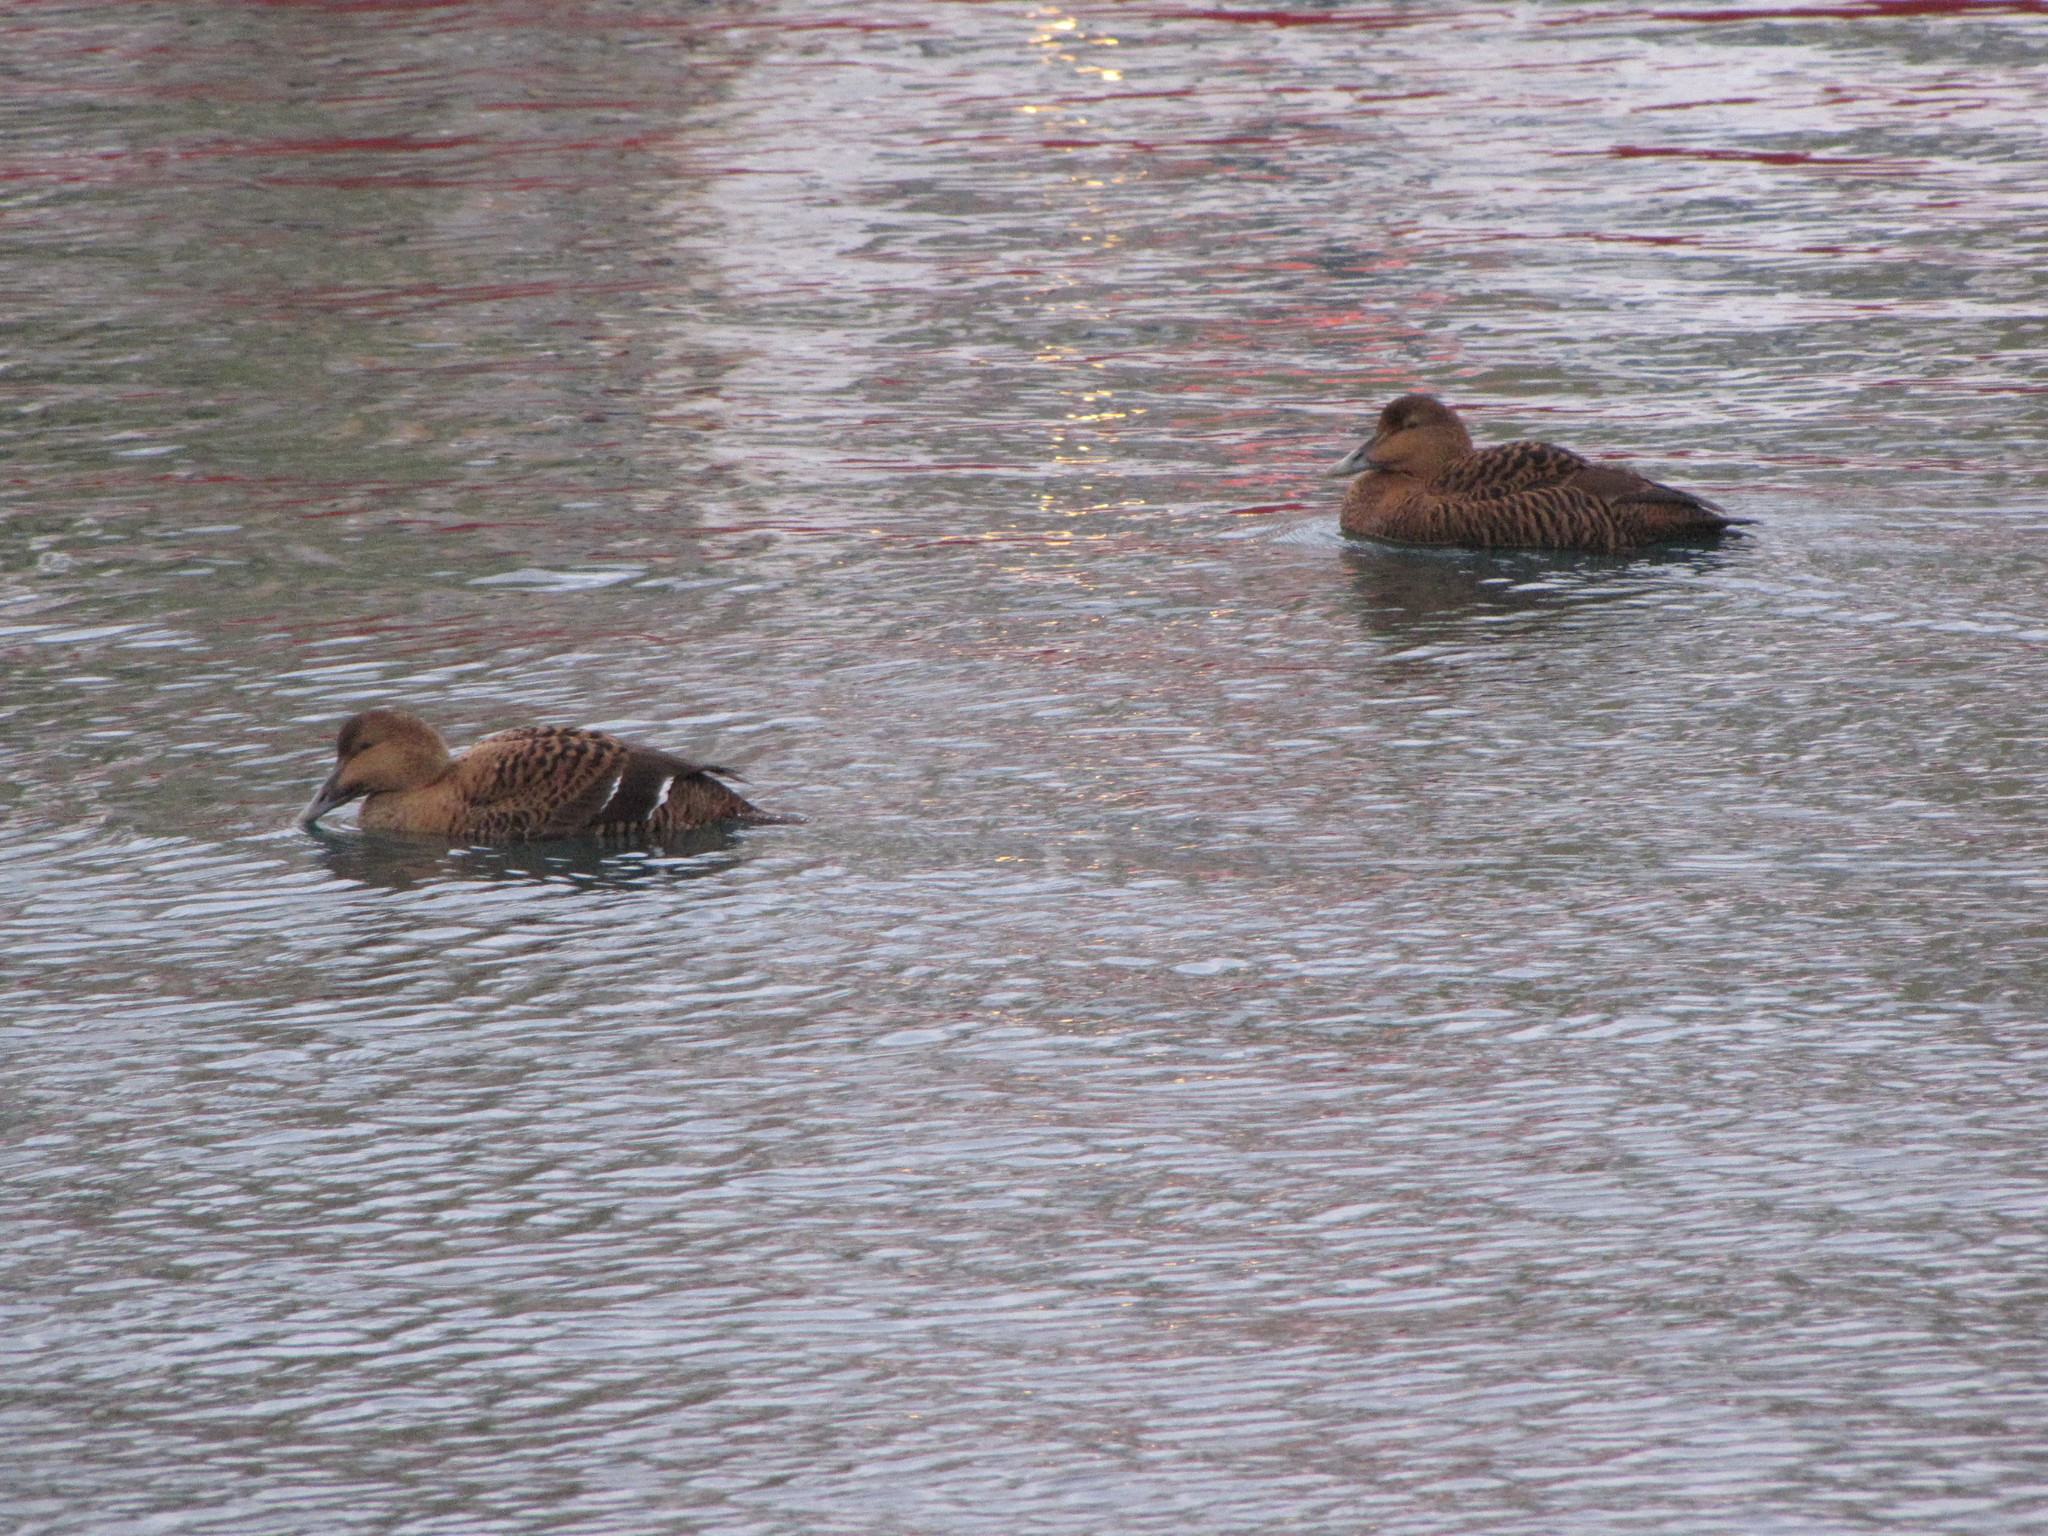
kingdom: Animalia
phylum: Chordata
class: Aves
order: Anseriformes
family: Anatidae
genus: Somateria
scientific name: Somateria mollissima
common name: Common eider
